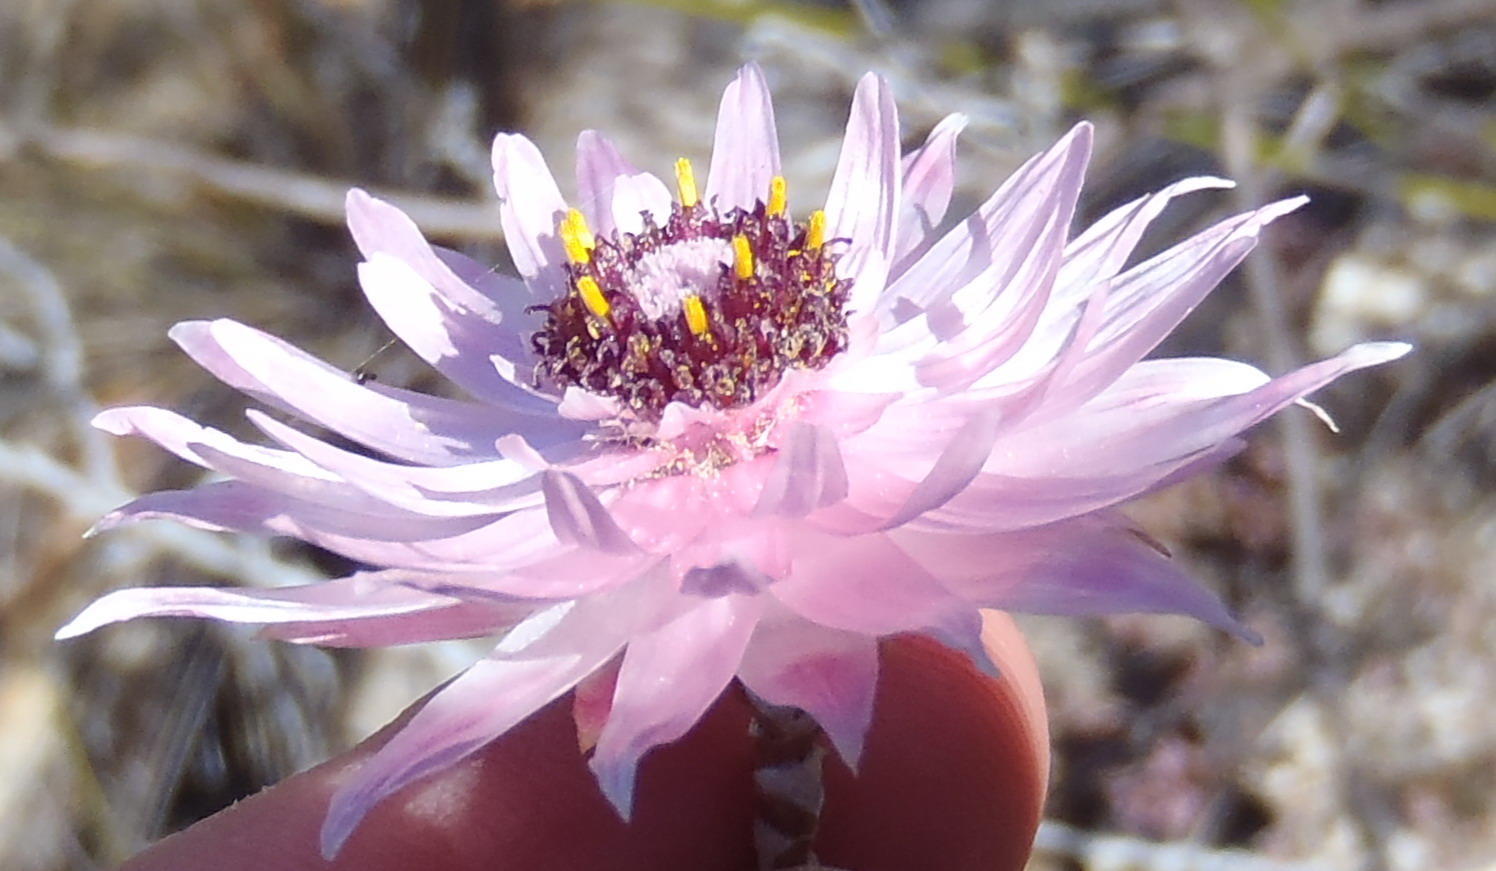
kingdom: Plantae
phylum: Tracheophyta
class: Magnoliopsida
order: Asterales
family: Asteraceae
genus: Syncarpha
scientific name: Syncarpha canescens
